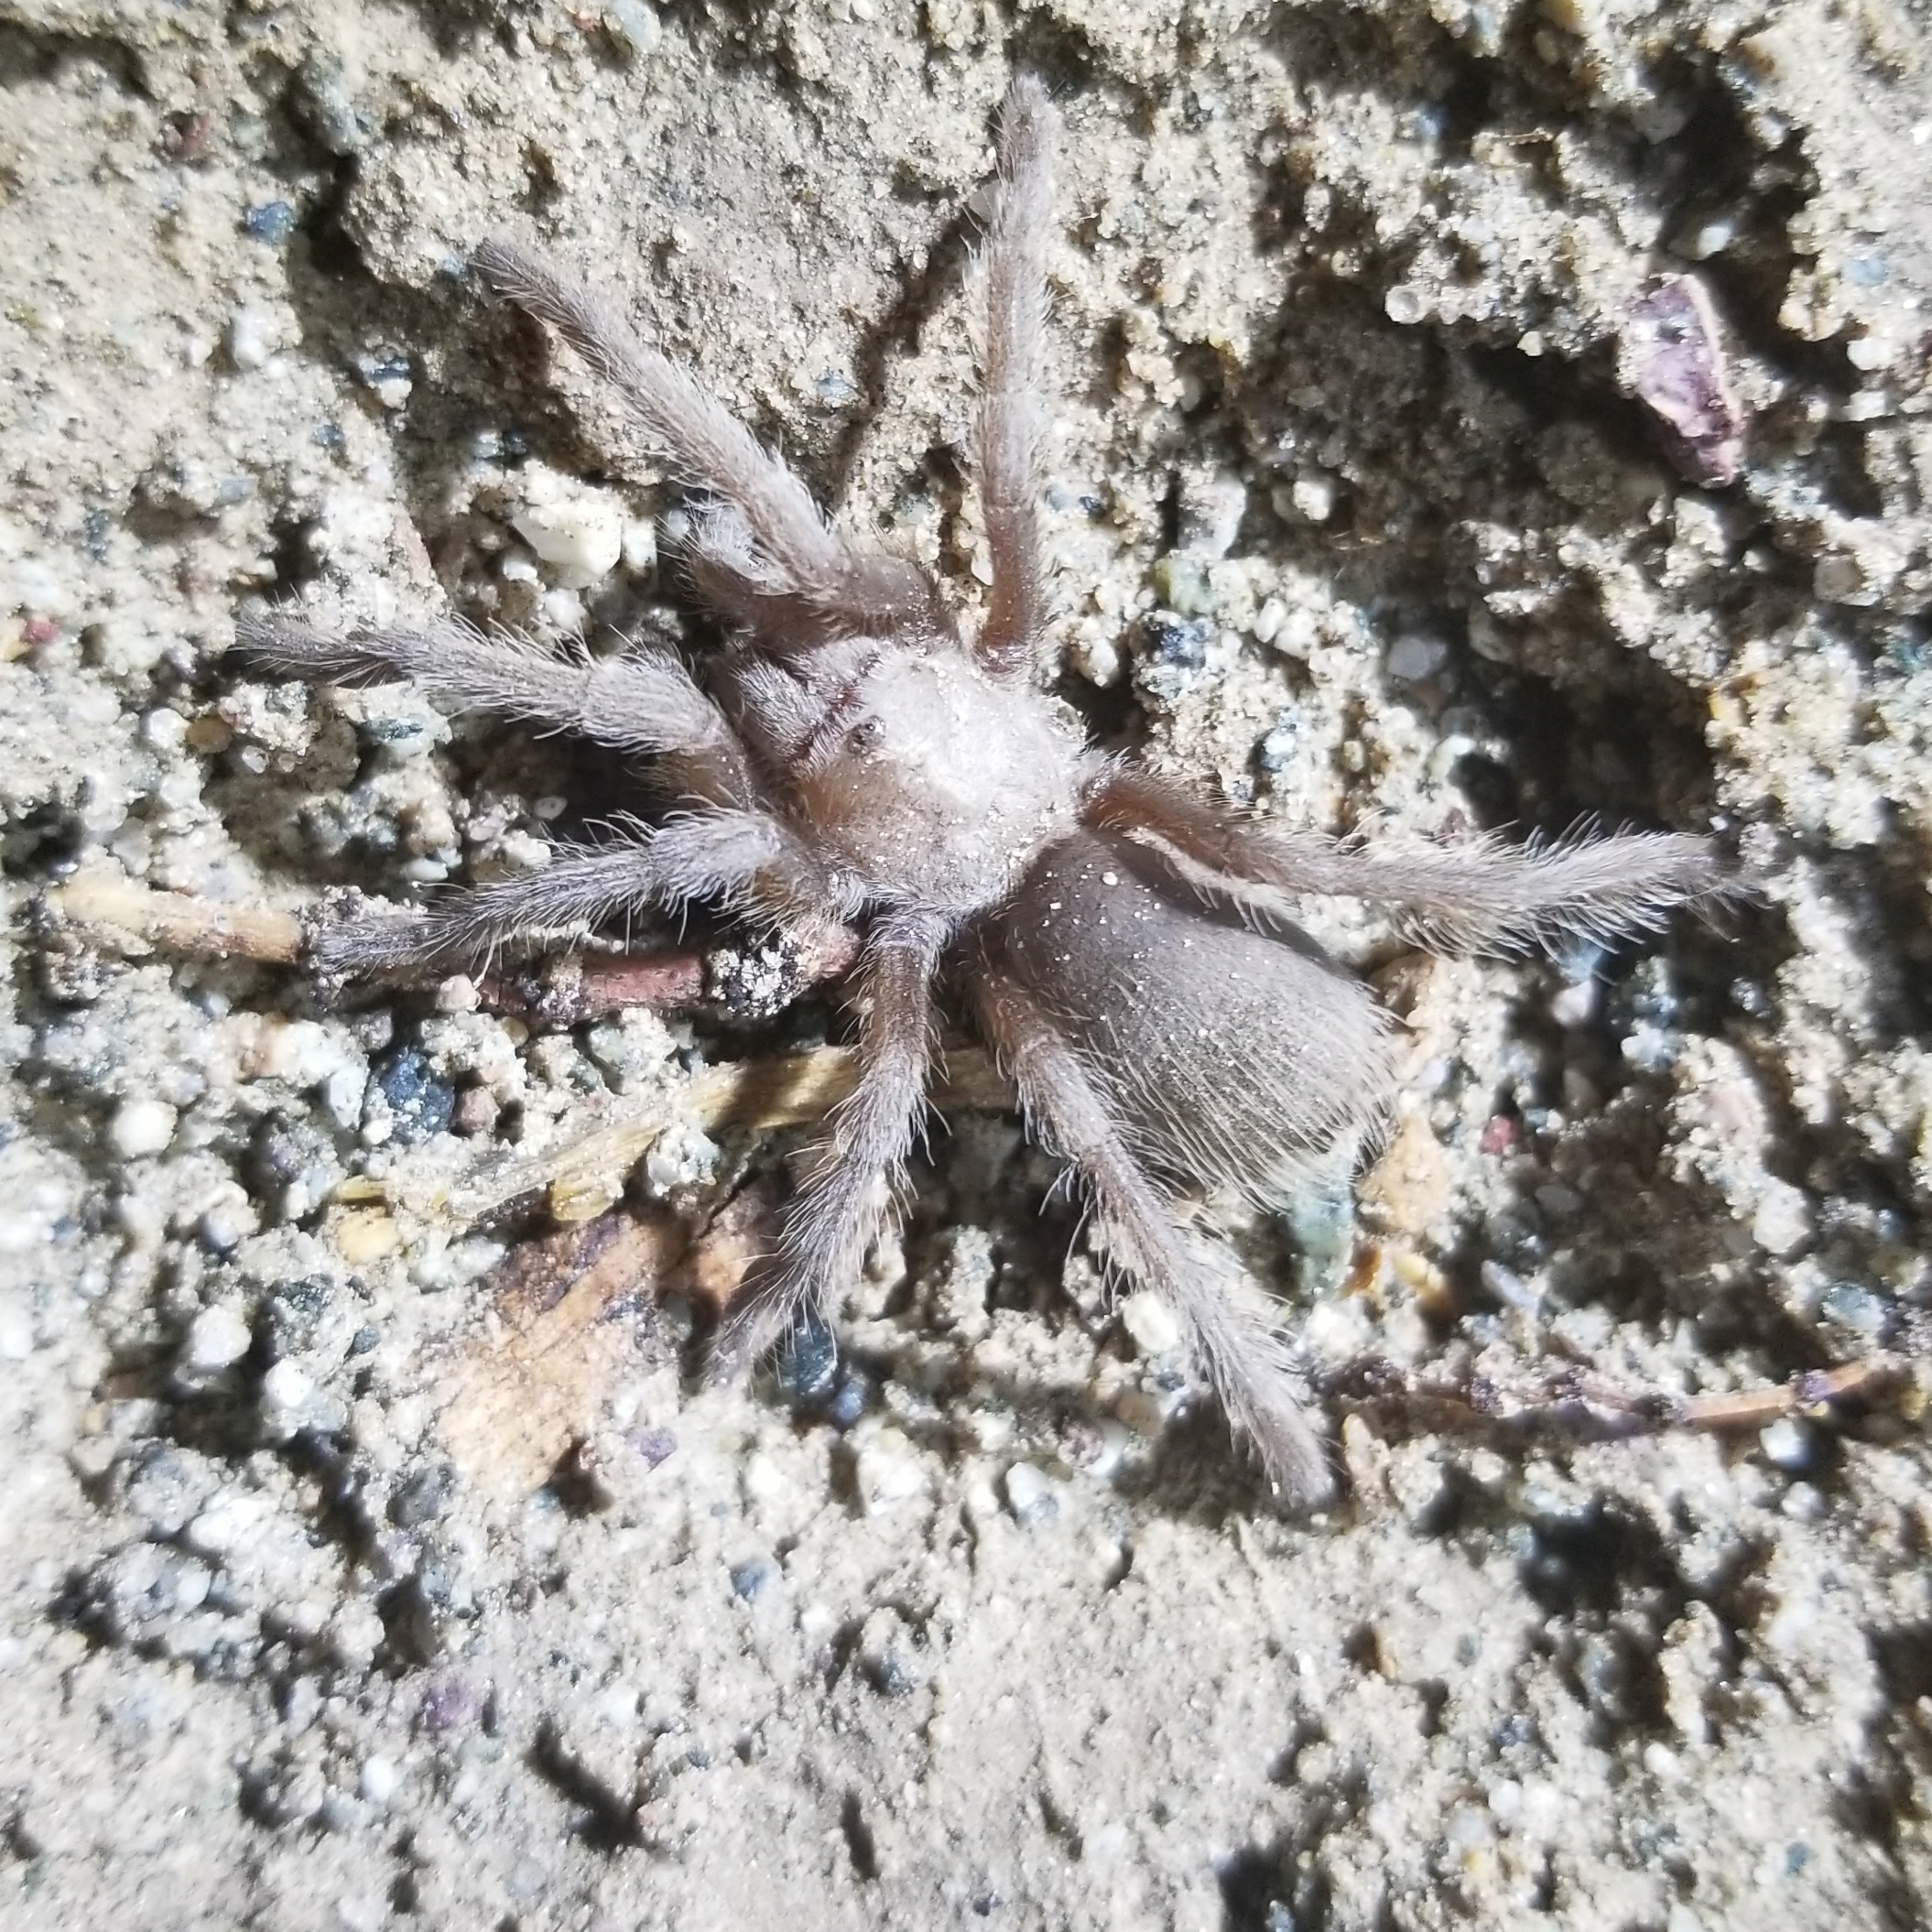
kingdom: Animalia
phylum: Arthropoda
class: Arachnida
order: Araneae
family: Theraphosidae
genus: Aphonopelma
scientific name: Aphonopelma eutylenum
